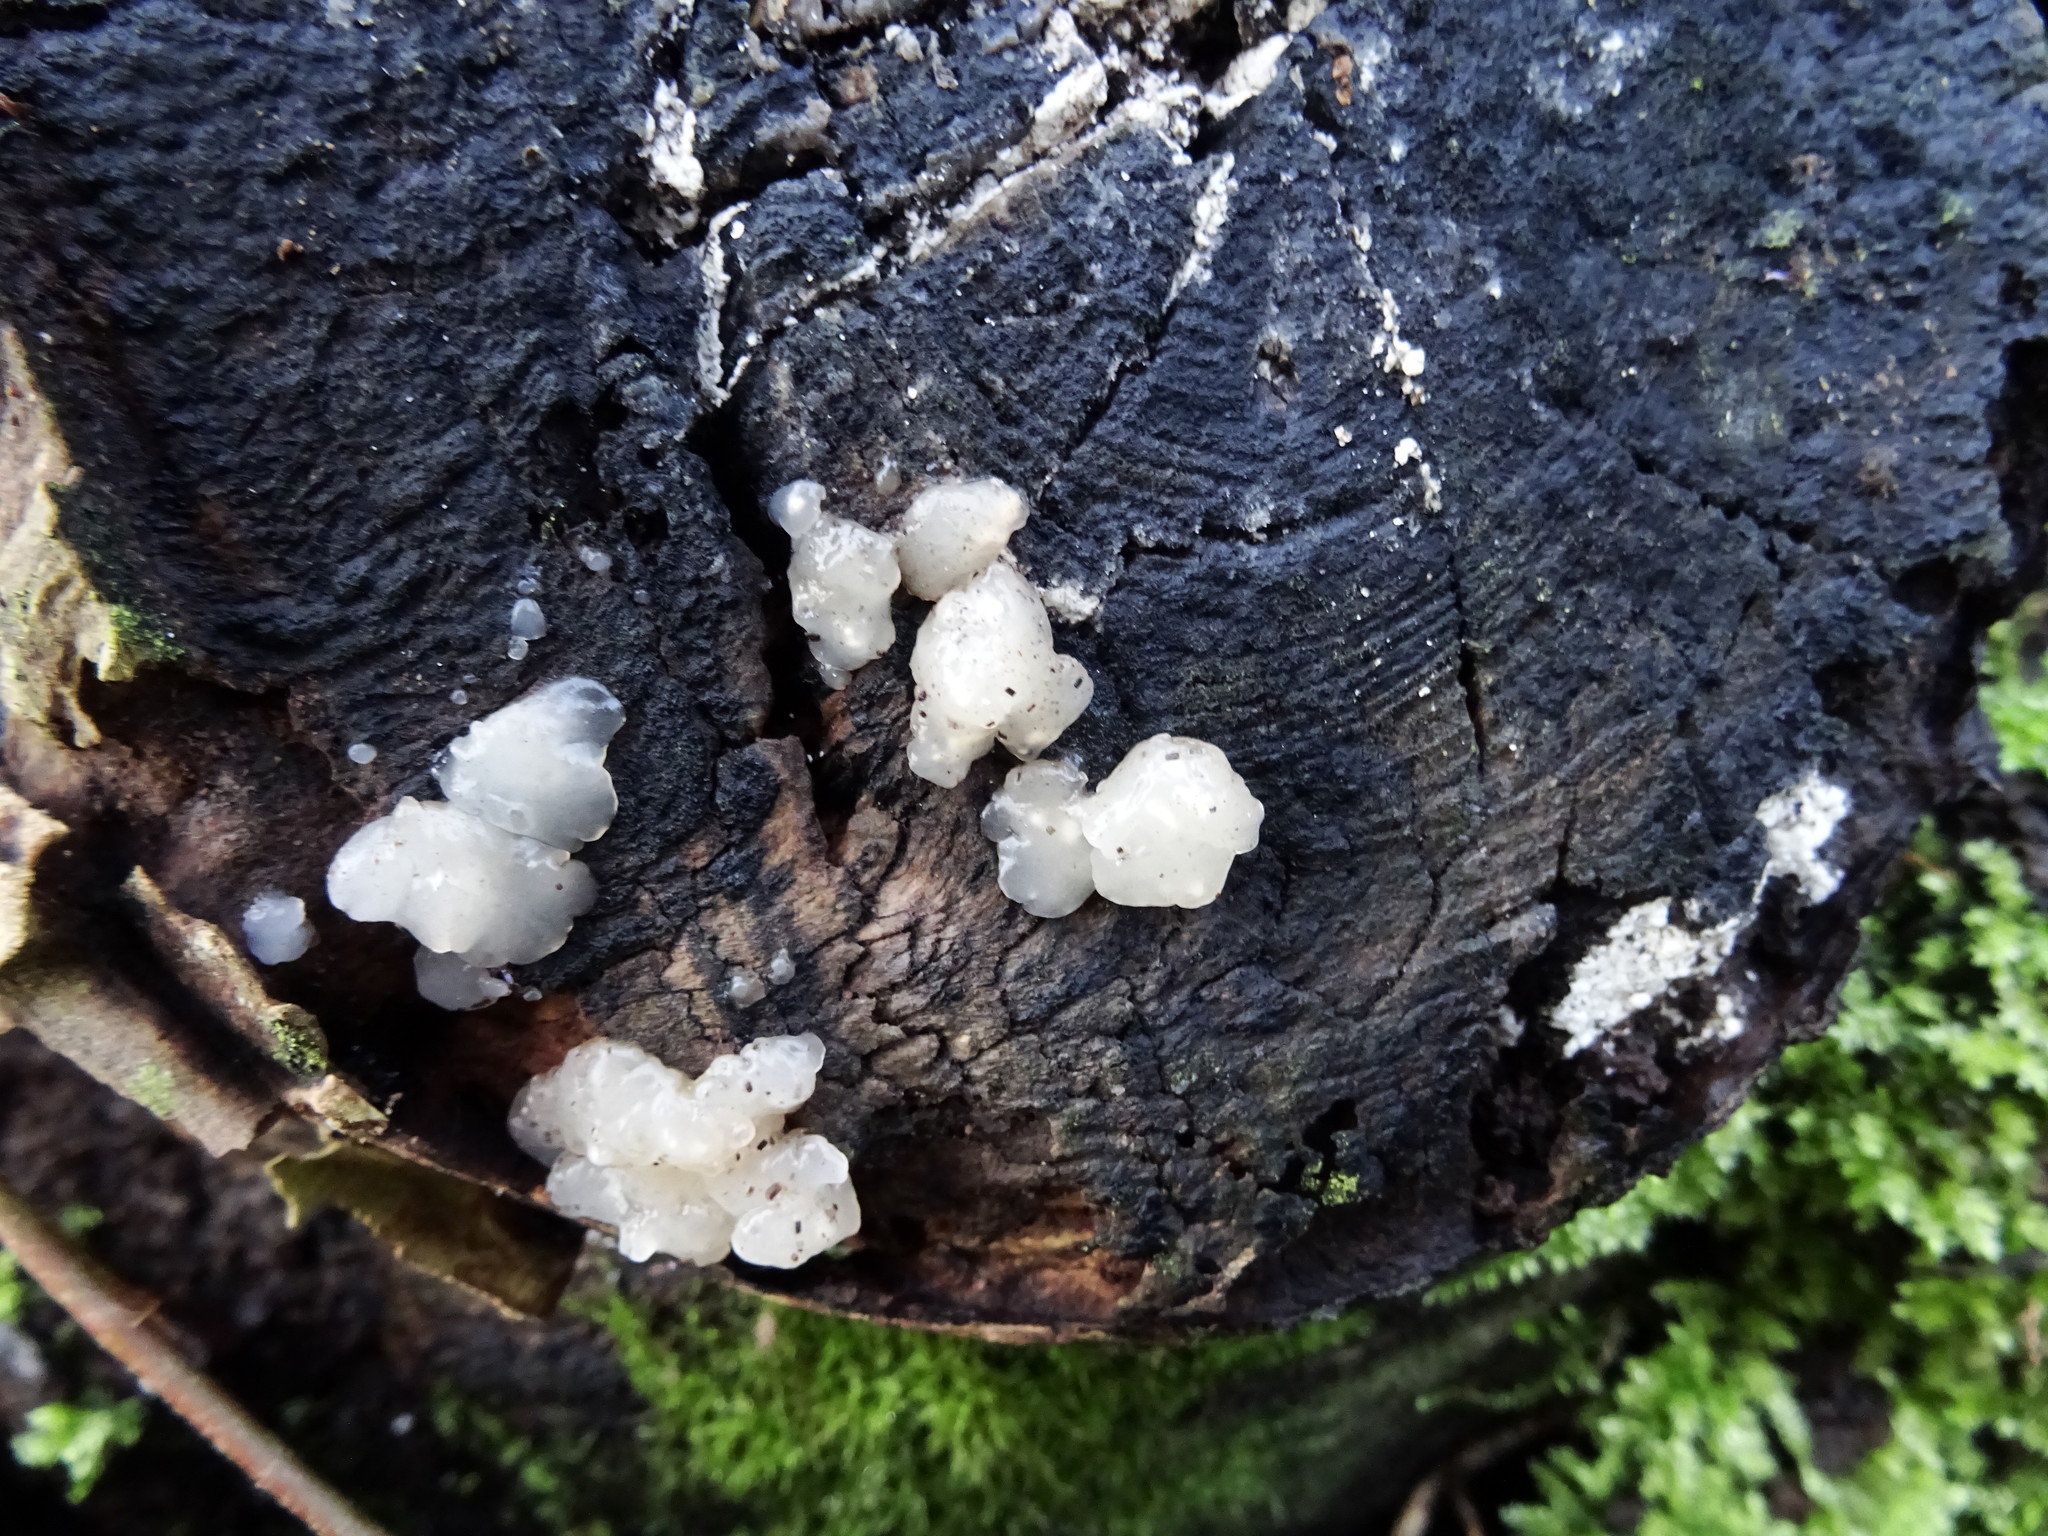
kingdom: Fungi
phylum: Basidiomycota
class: Agaricomycetes
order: Auriculariales
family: Hyaloriaceae
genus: Myxarium
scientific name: Myxarium nucleatum
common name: Crystal brain fungus
